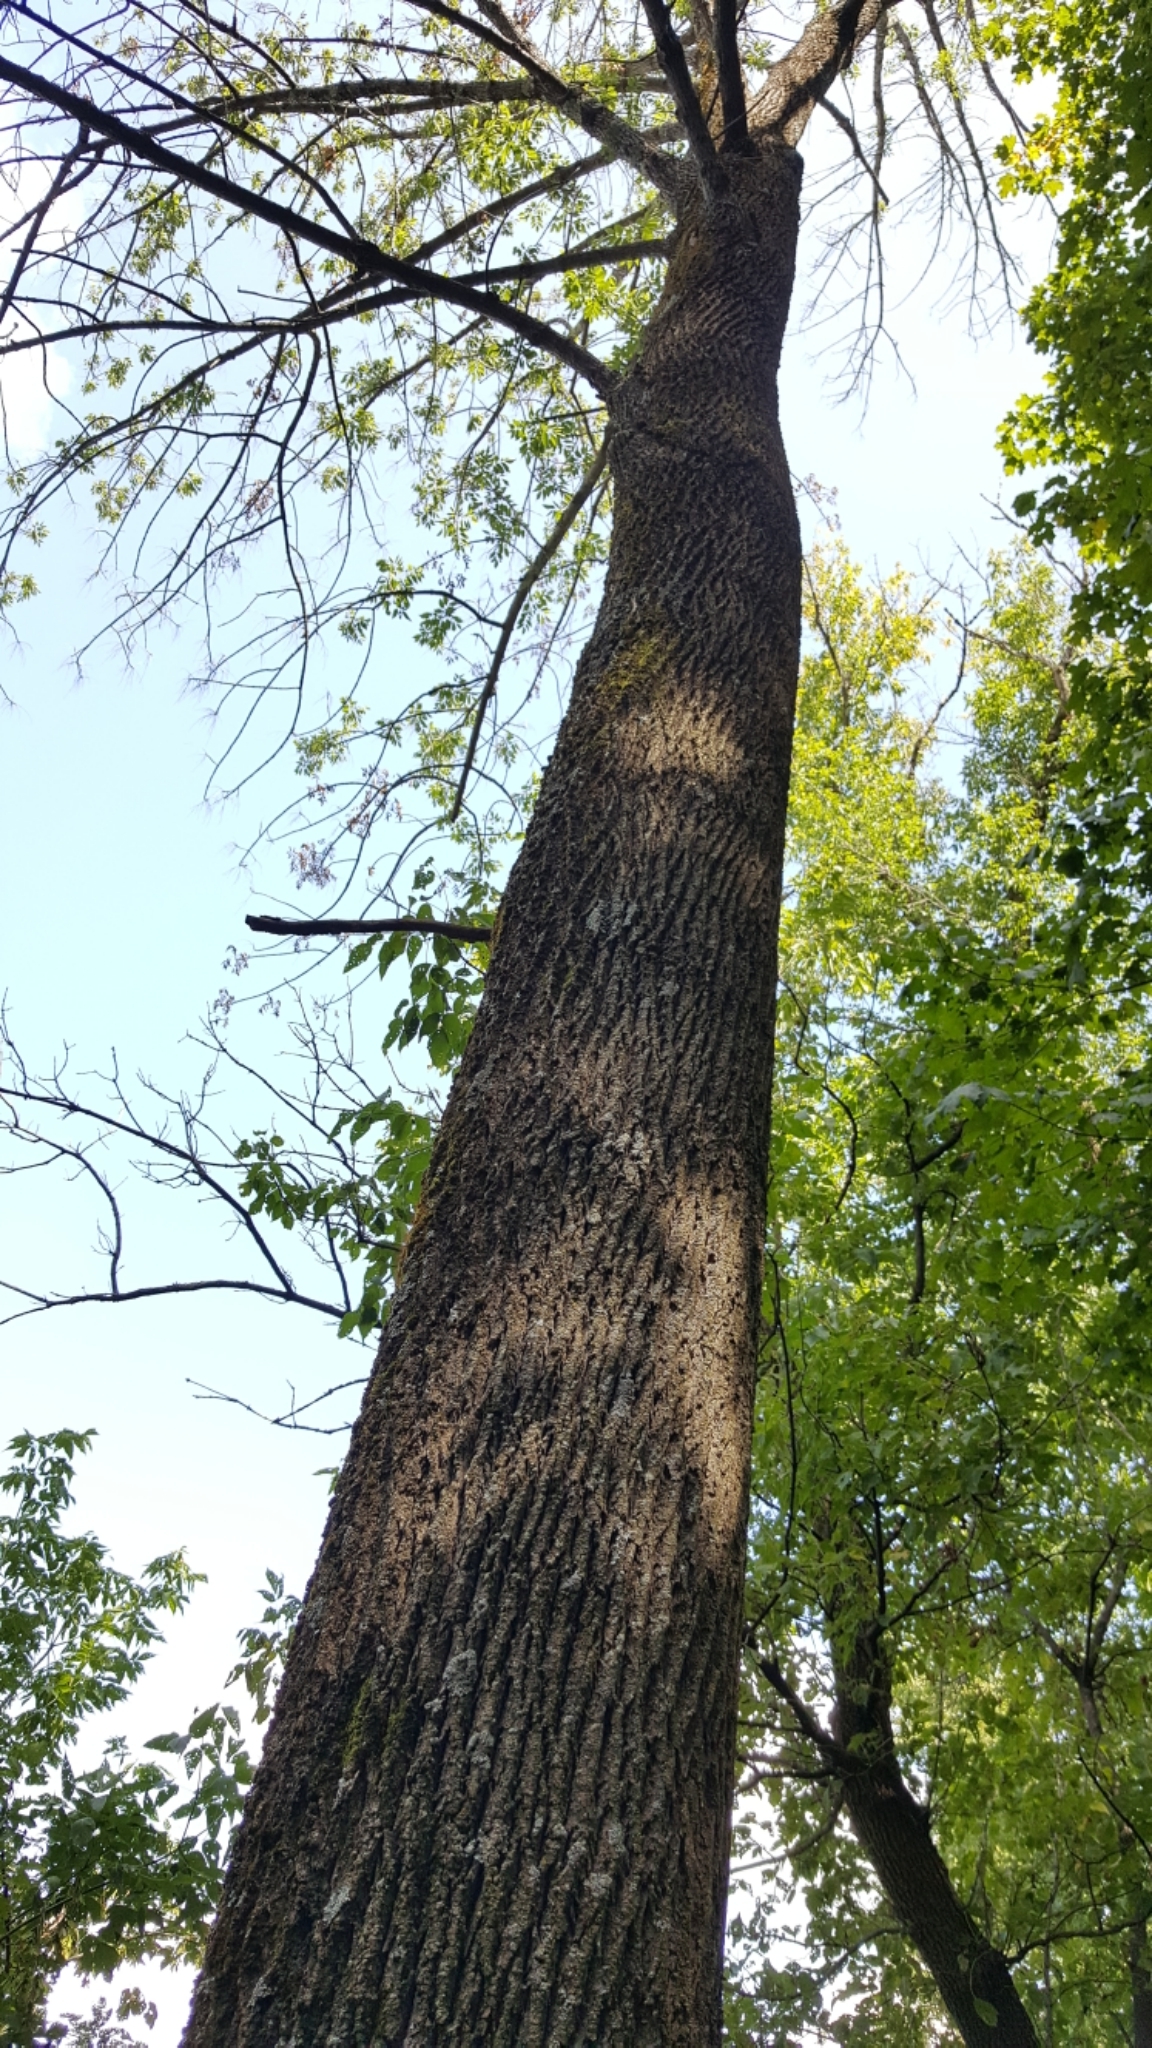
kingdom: Plantae
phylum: Tracheophyta
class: Magnoliopsida
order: Lamiales
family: Oleaceae
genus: Fraxinus
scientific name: Fraxinus americana
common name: White ash
